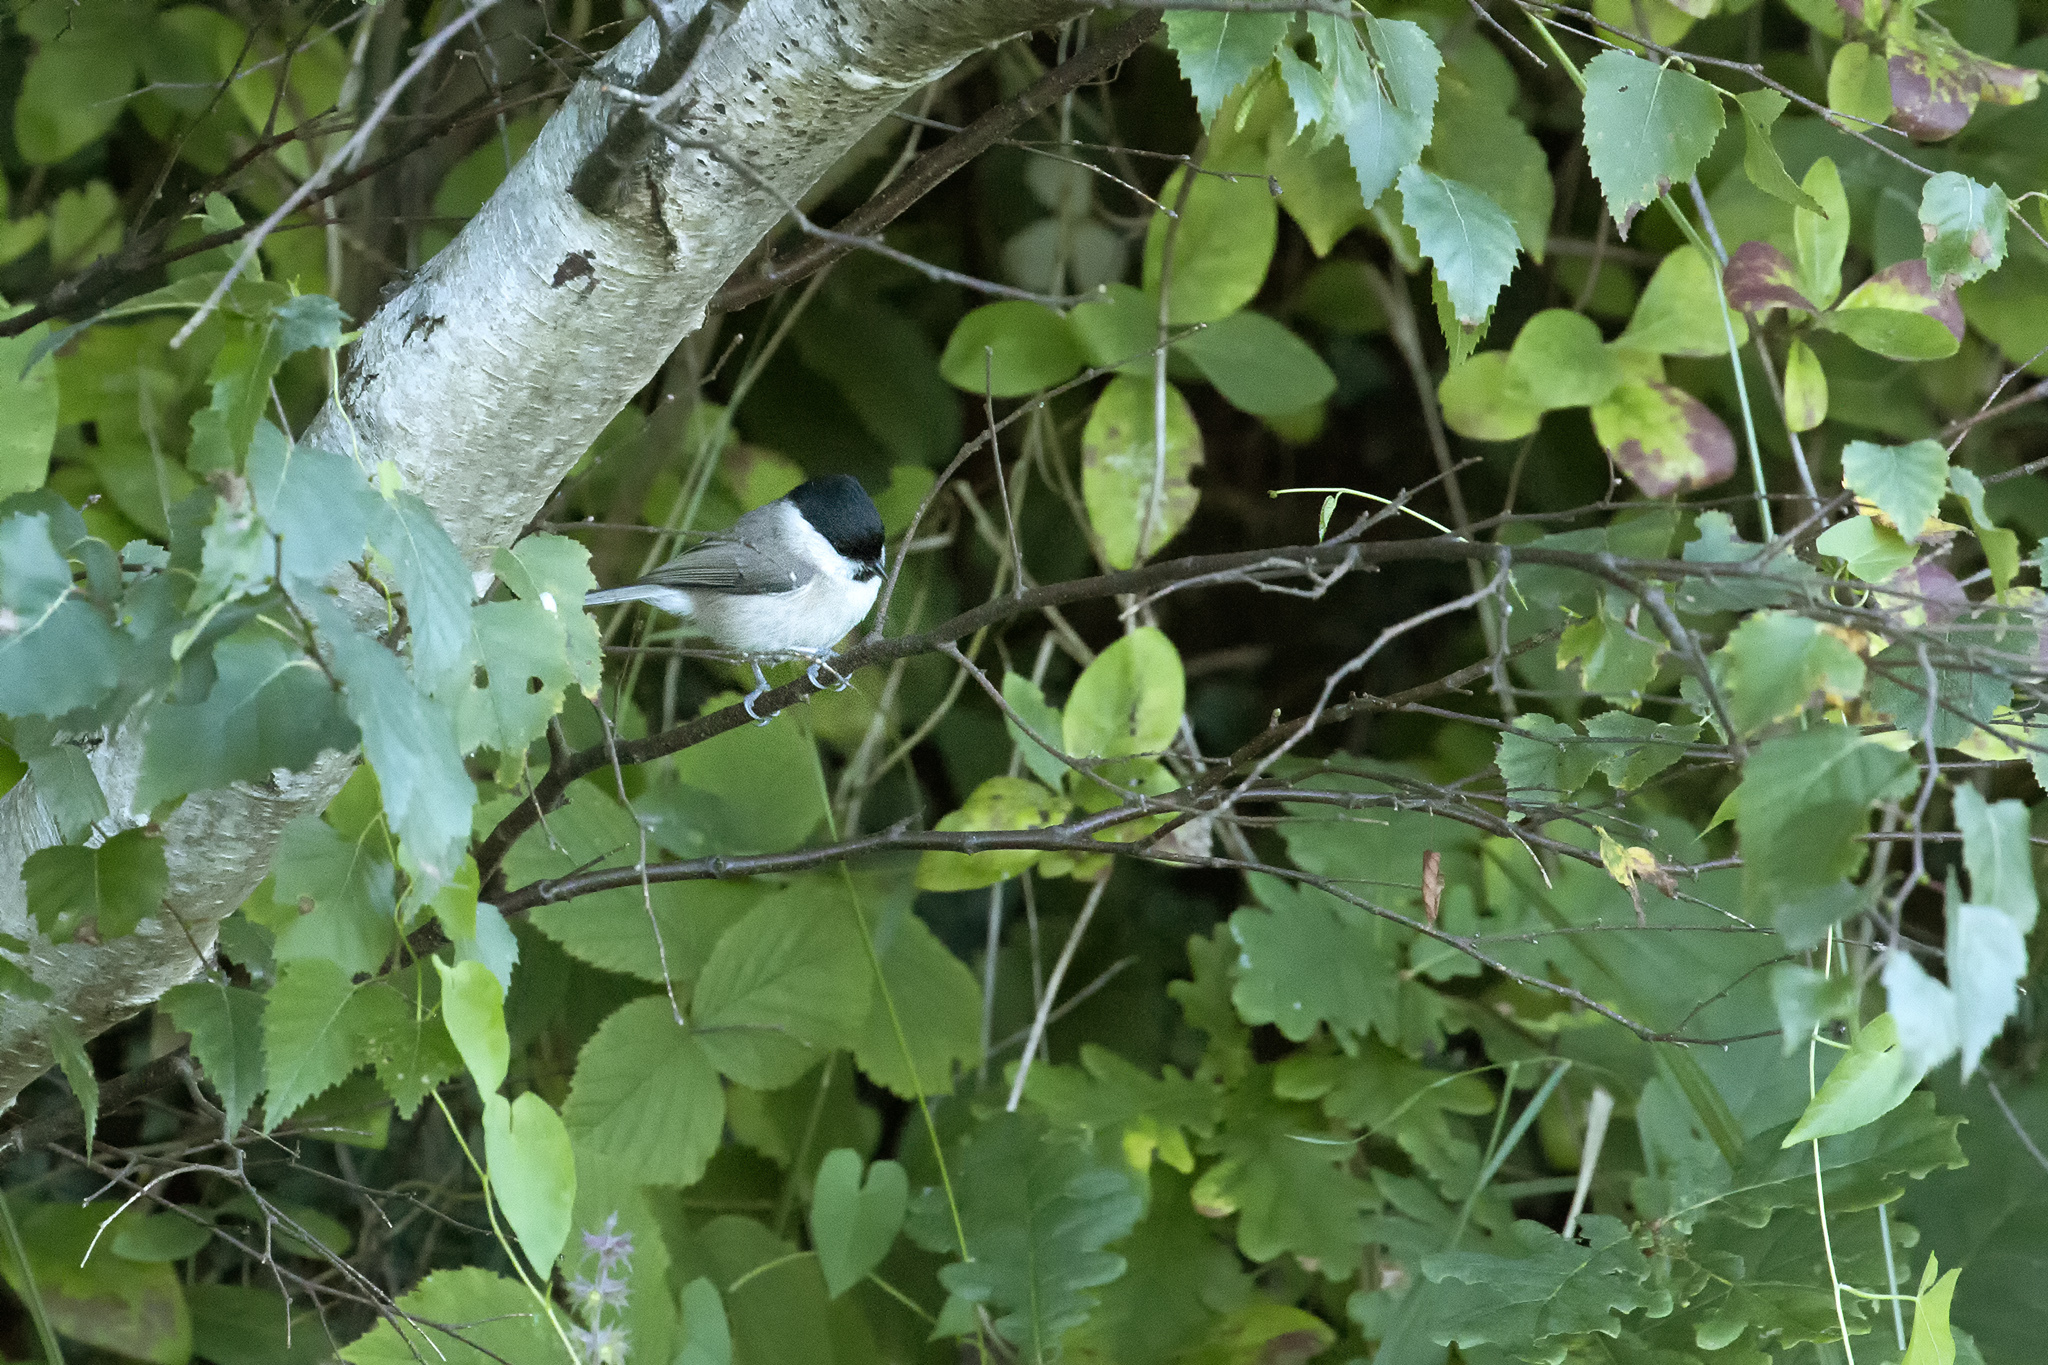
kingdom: Animalia
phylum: Chordata
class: Aves
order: Passeriformes
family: Paridae
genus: Poecile
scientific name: Poecile palustris
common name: Marsh tit
